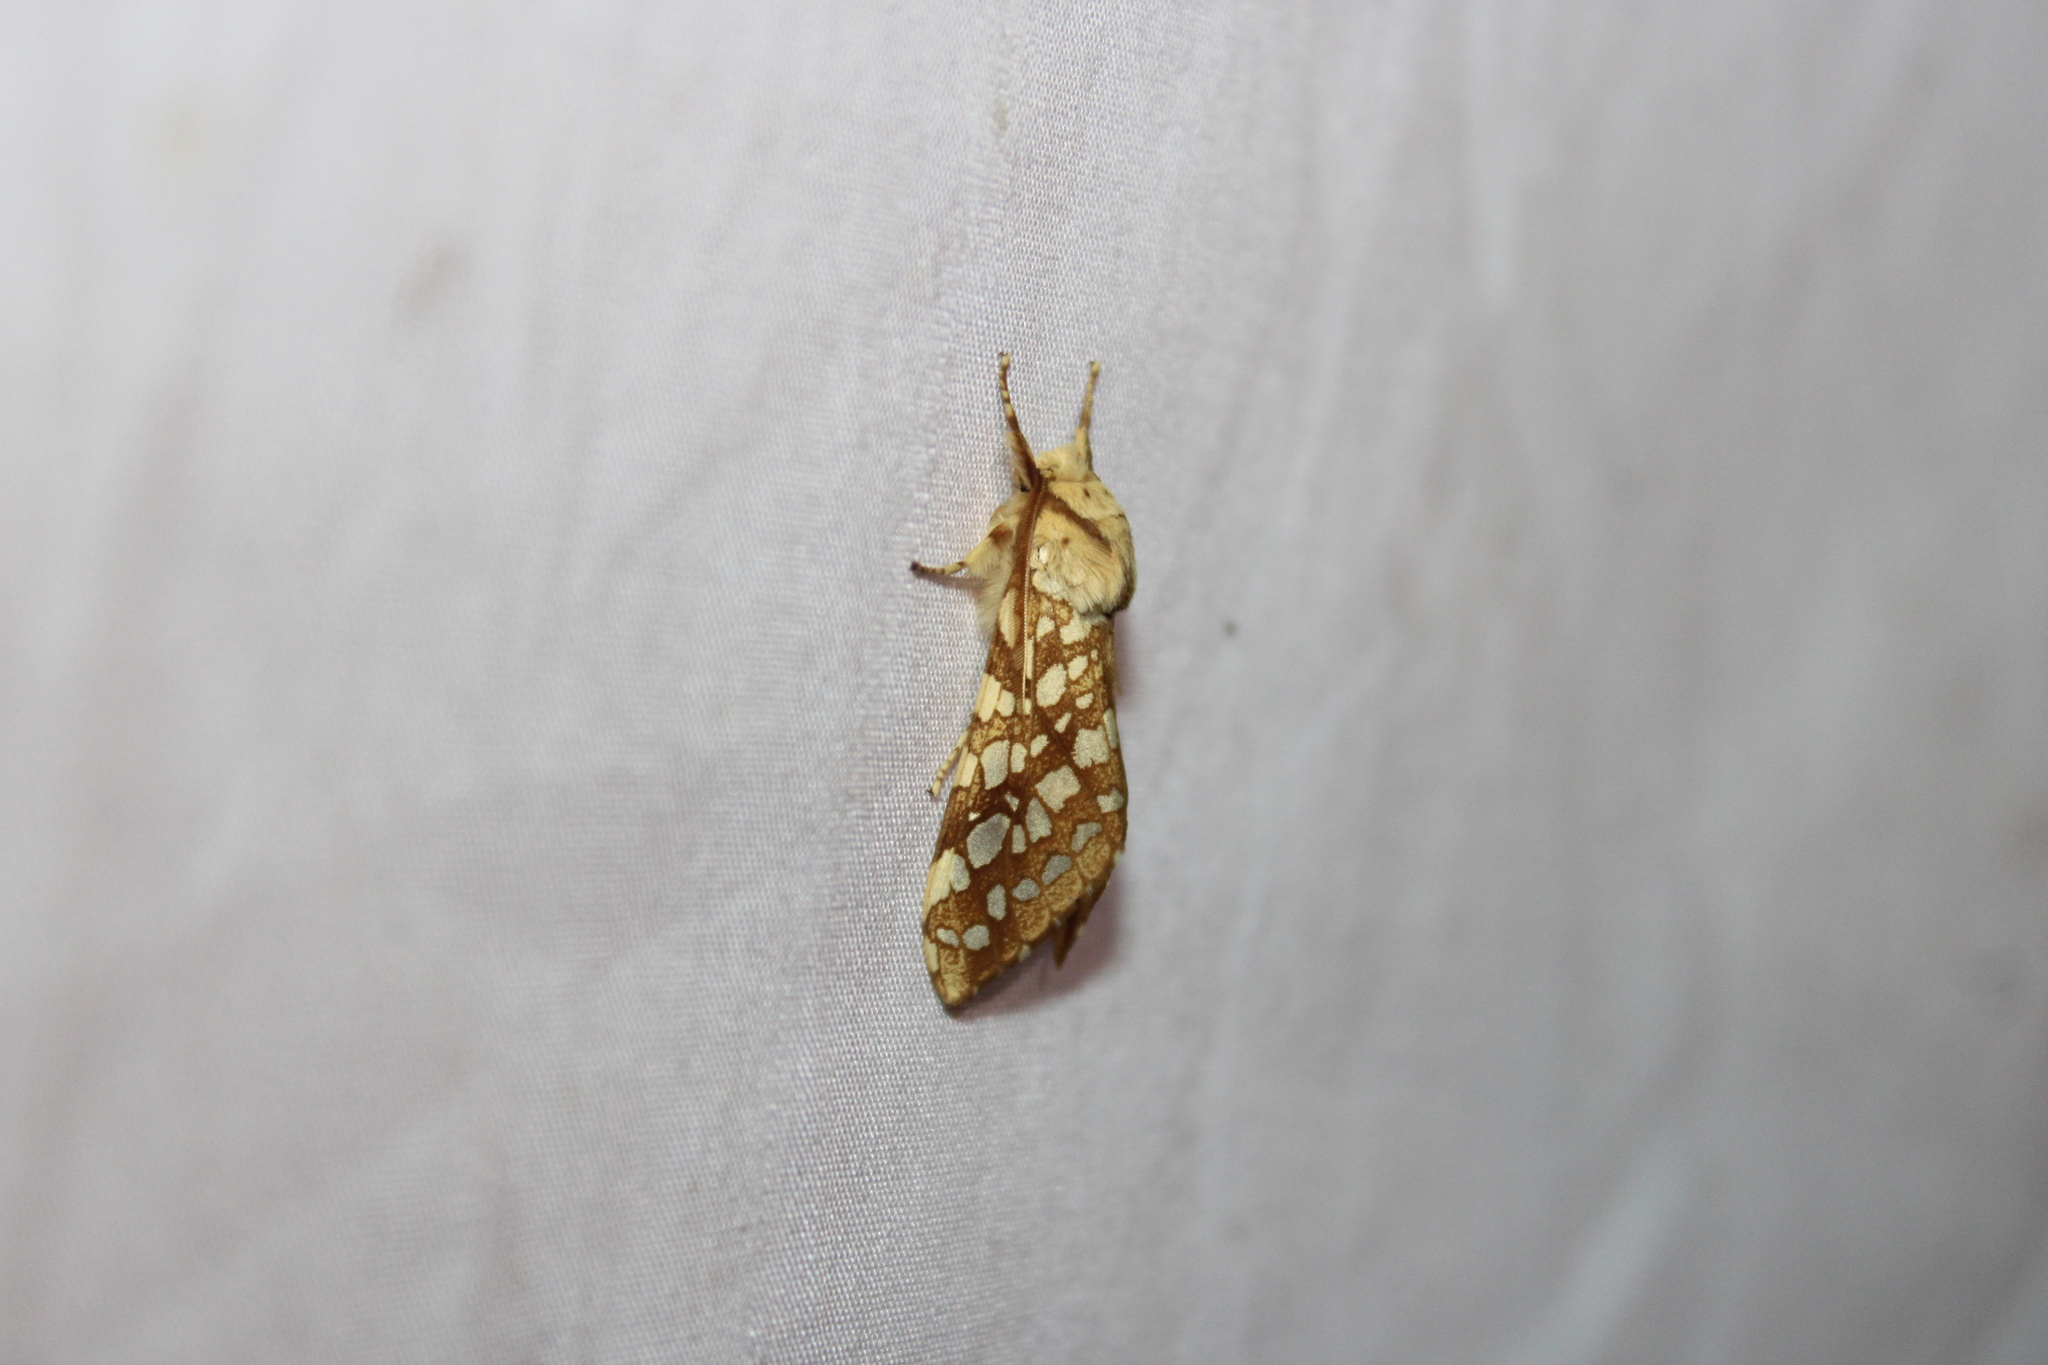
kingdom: Animalia
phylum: Arthropoda
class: Insecta
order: Lepidoptera
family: Erebidae
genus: Lophocampa
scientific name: Lophocampa caryae
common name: Hickory tussock moth
